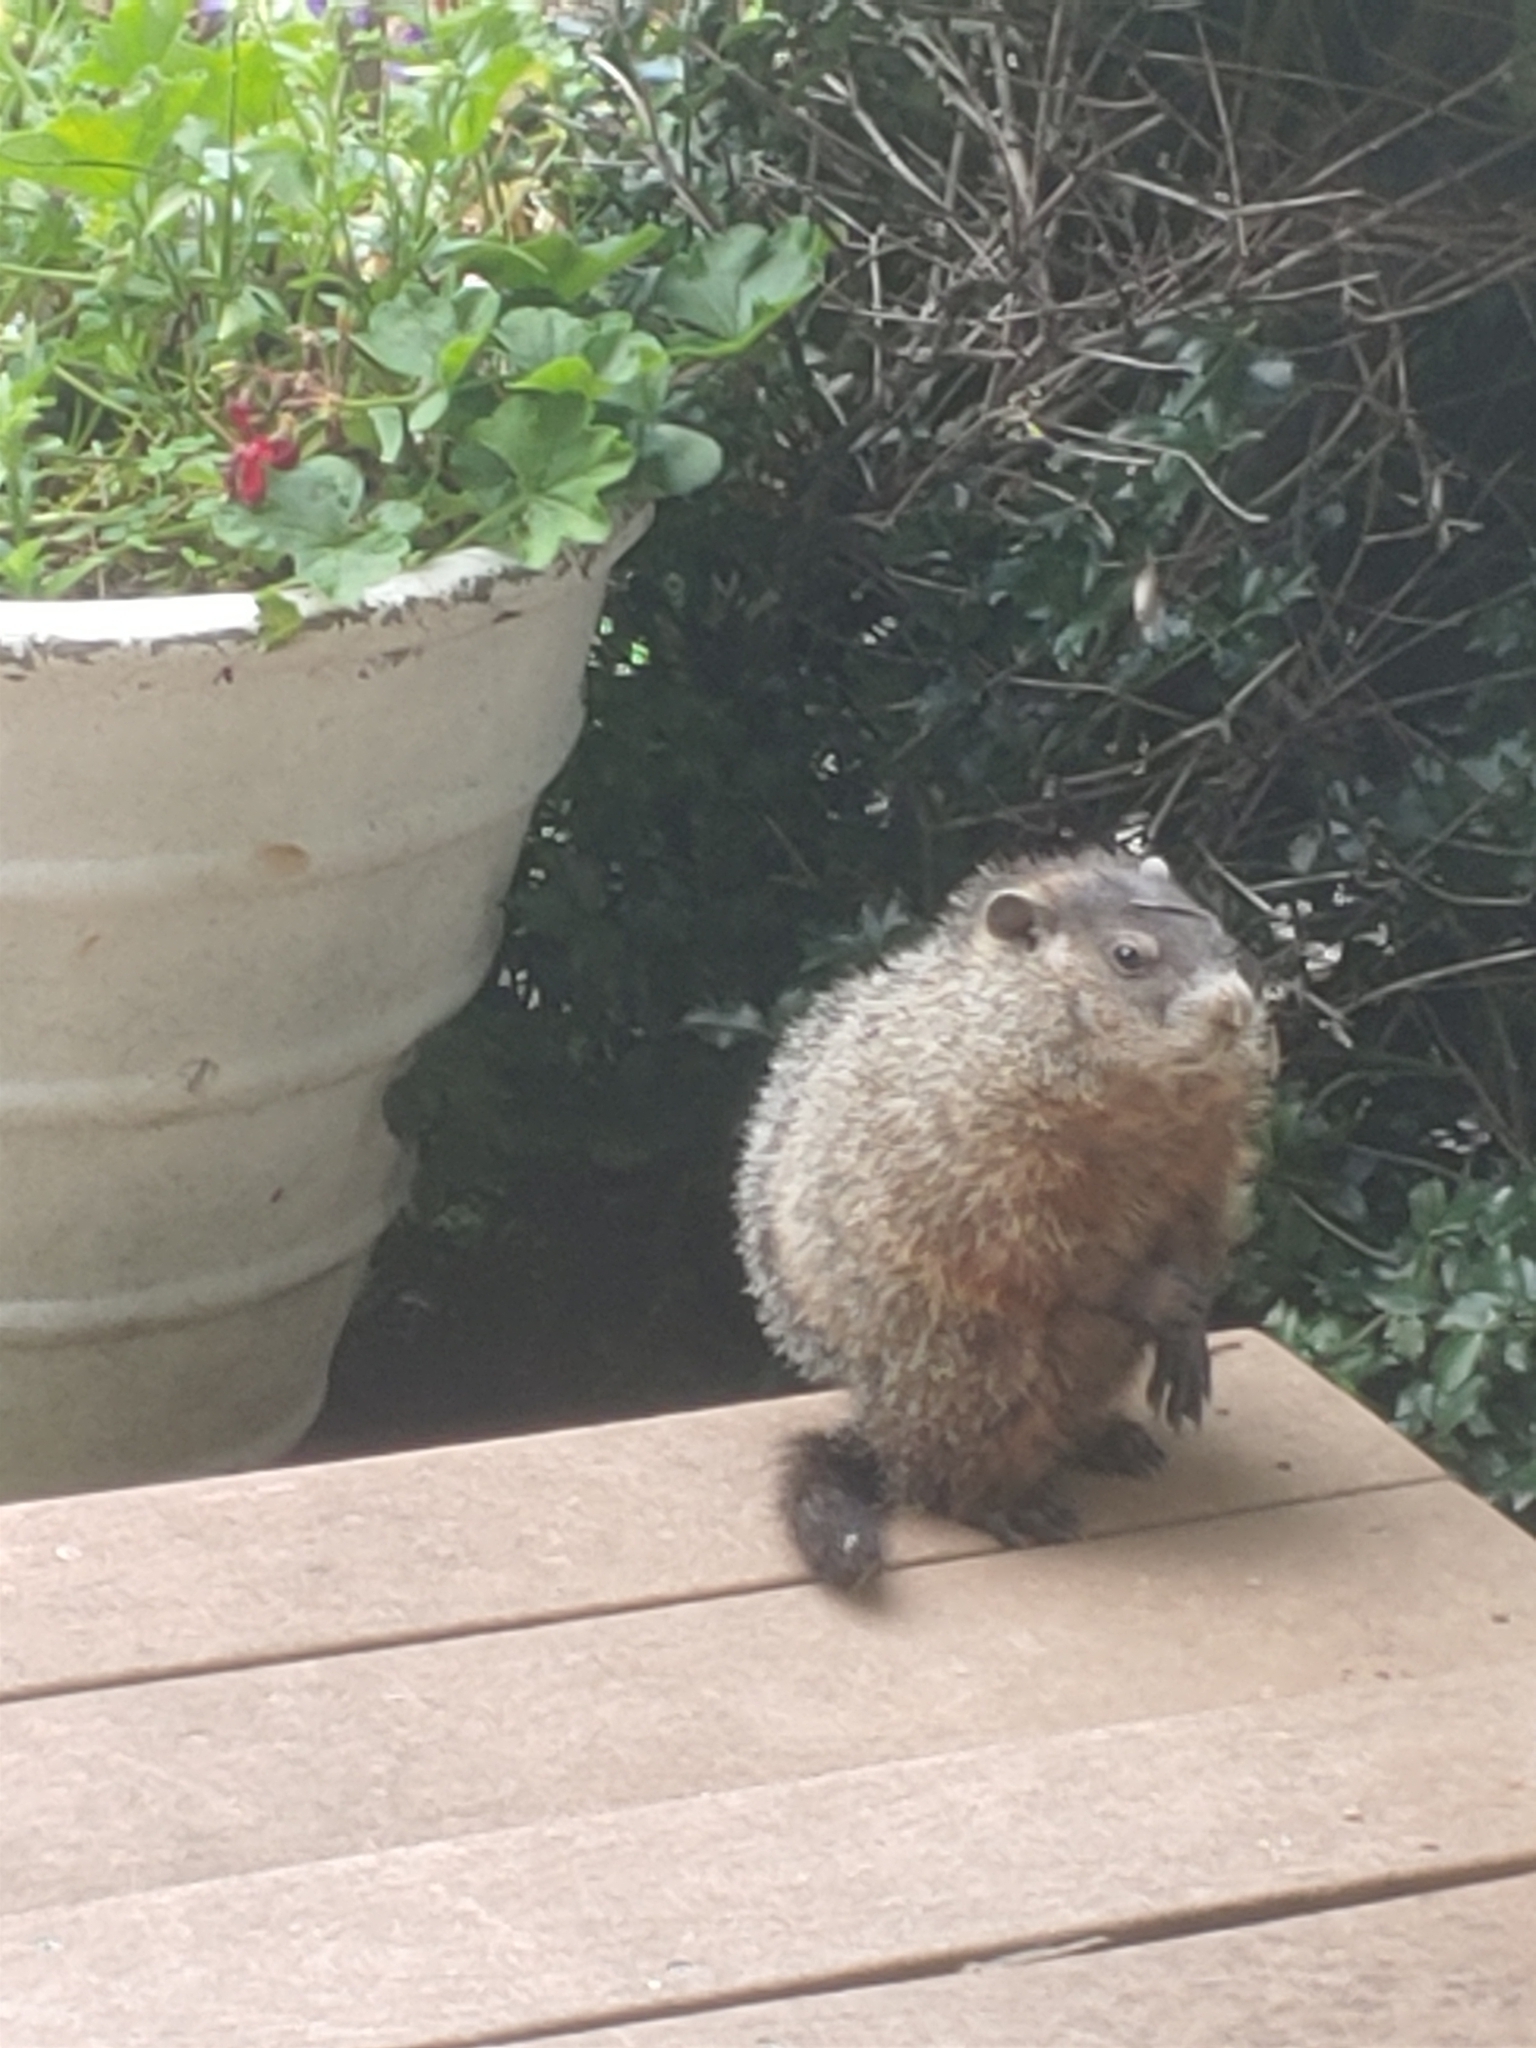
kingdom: Animalia
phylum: Chordata
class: Mammalia
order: Rodentia
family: Sciuridae
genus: Marmota
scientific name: Marmota monax
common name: Groundhog
